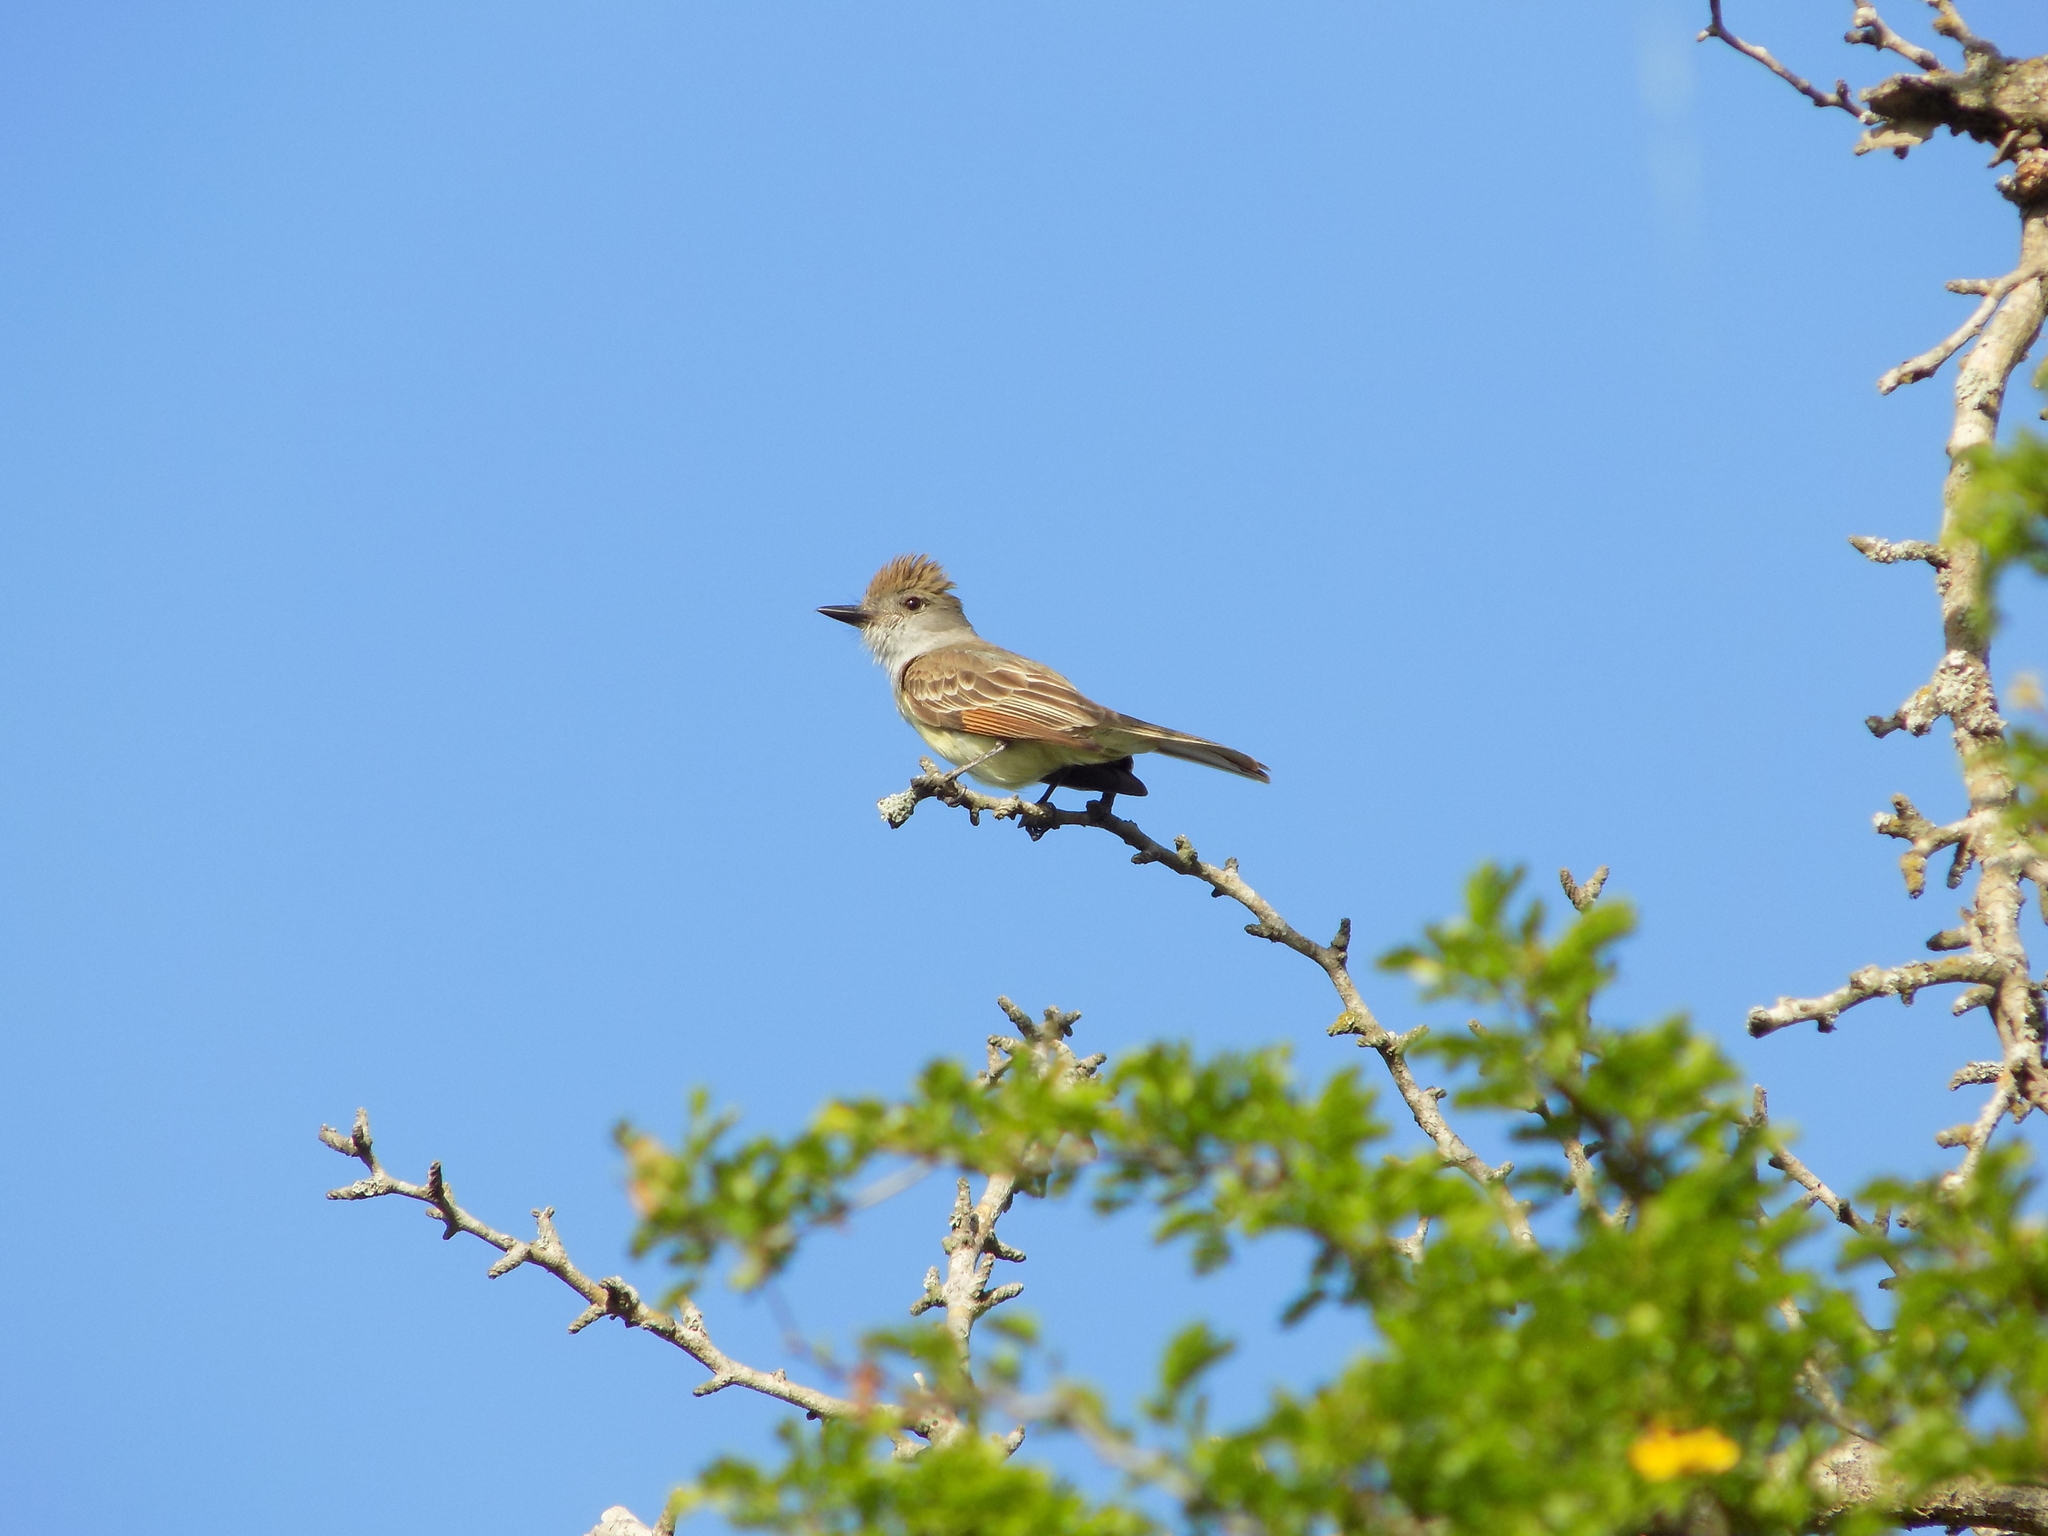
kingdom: Animalia
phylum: Chordata
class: Aves
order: Passeriformes
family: Tyrannidae
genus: Myiarchus
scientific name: Myiarchus tyrannulus
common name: Brown-crested flycatcher
